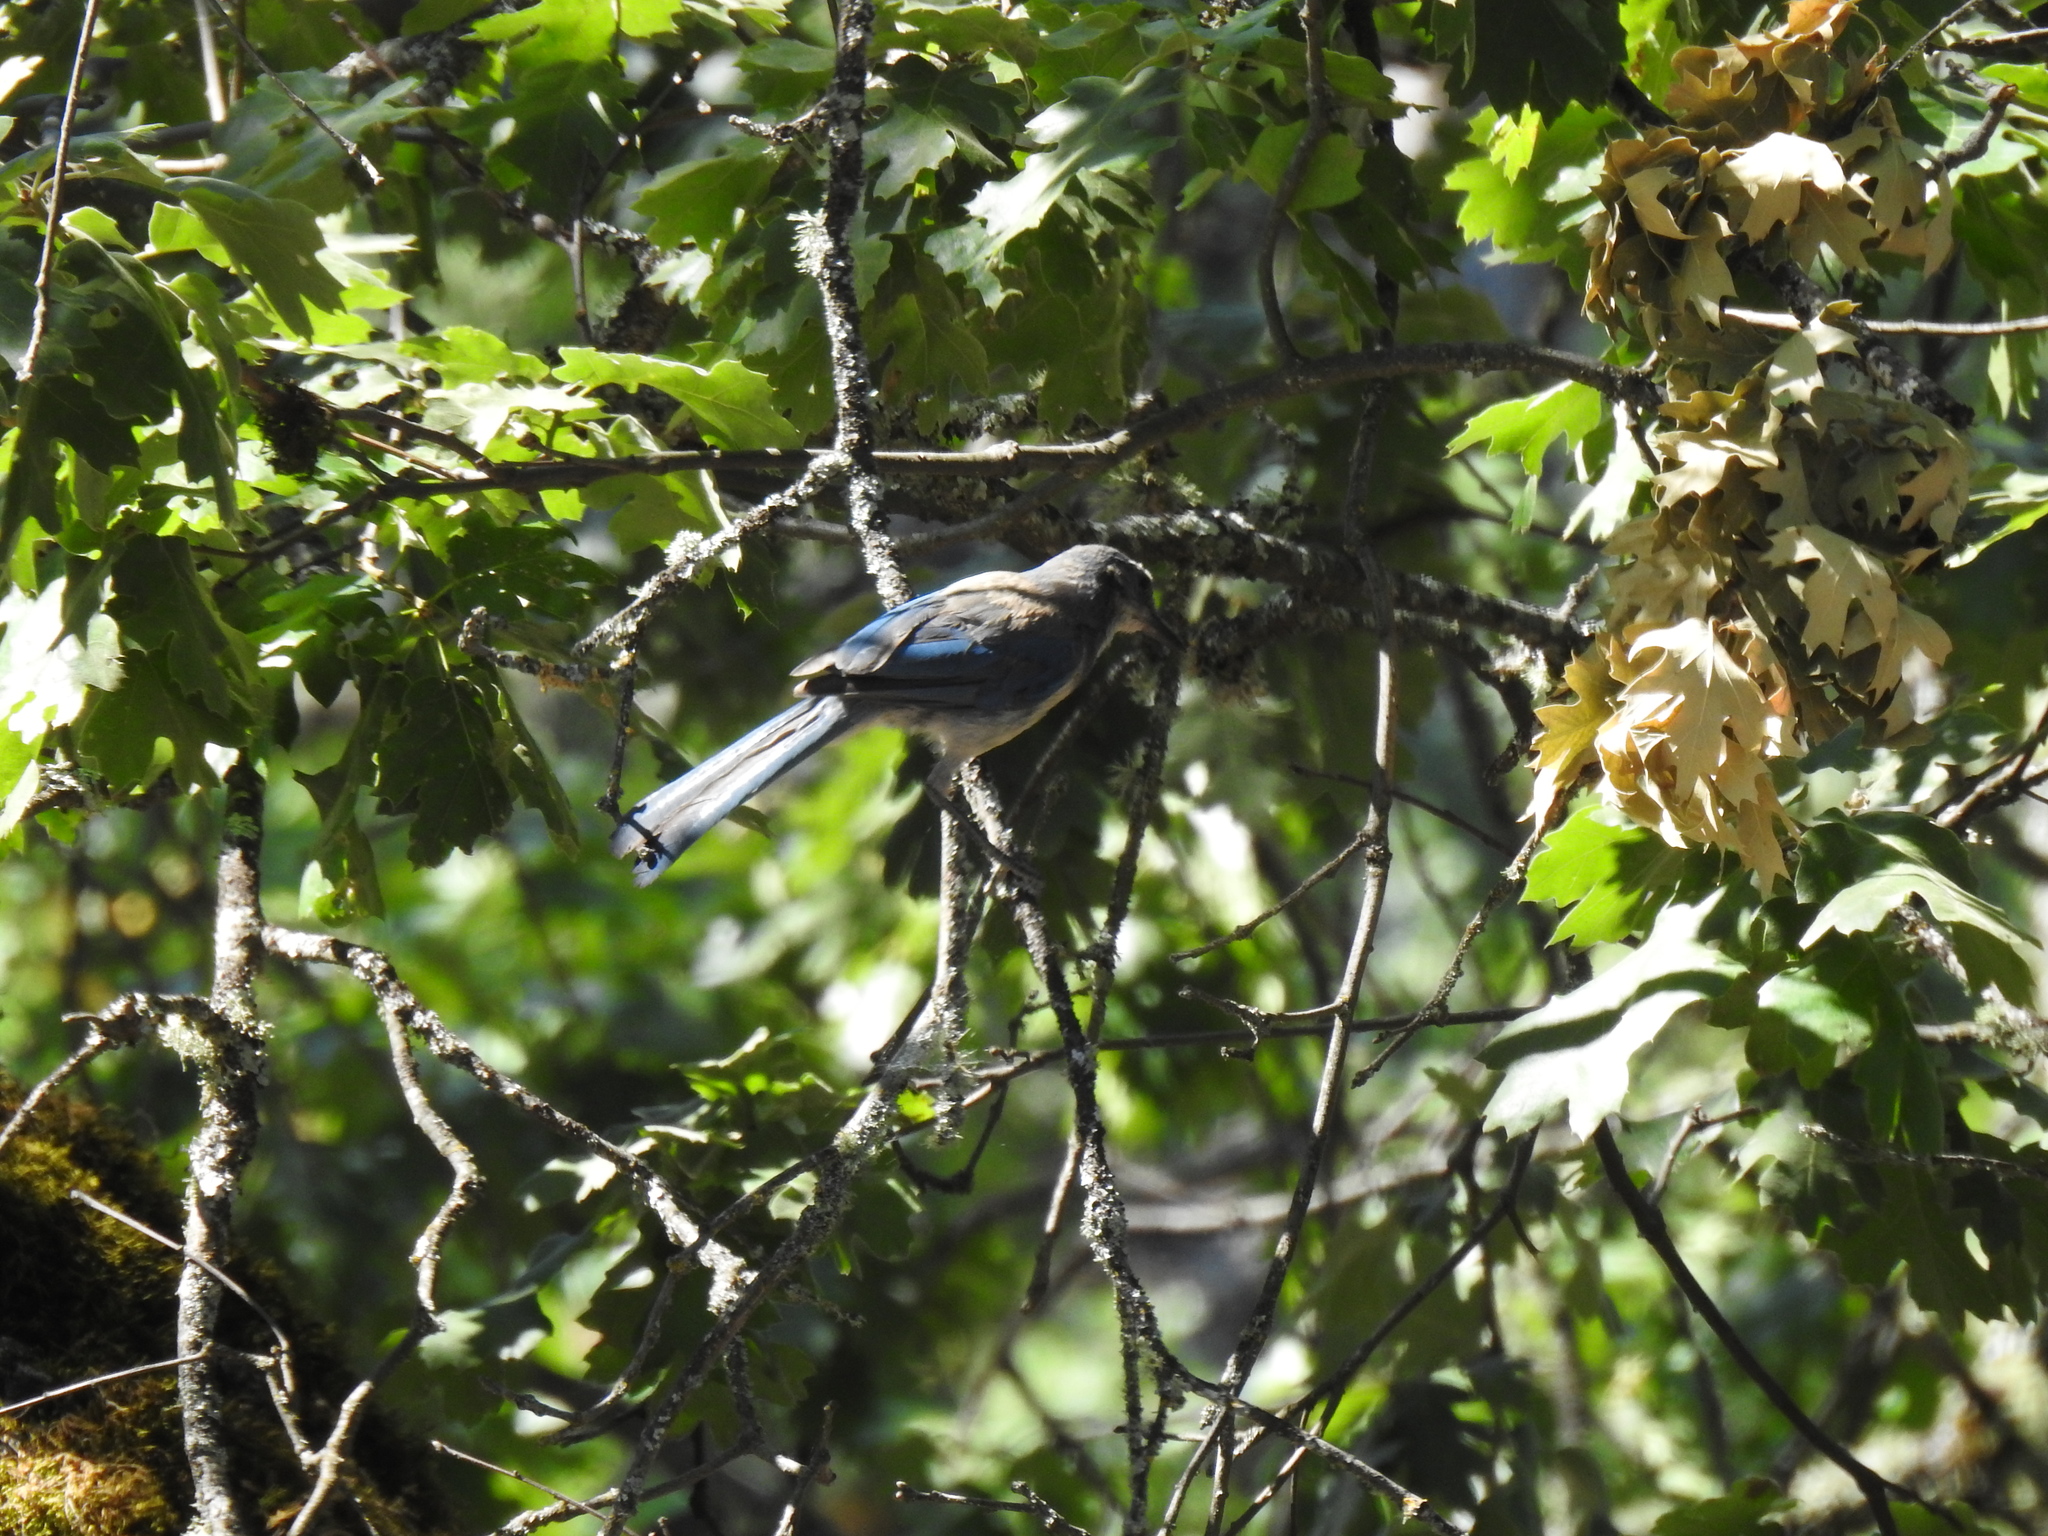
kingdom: Animalia
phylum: Chordata
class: Aves
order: Passeriformes
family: Corvidae
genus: Aphelocoma
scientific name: Aphelocoma californica
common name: California scrub-jay
